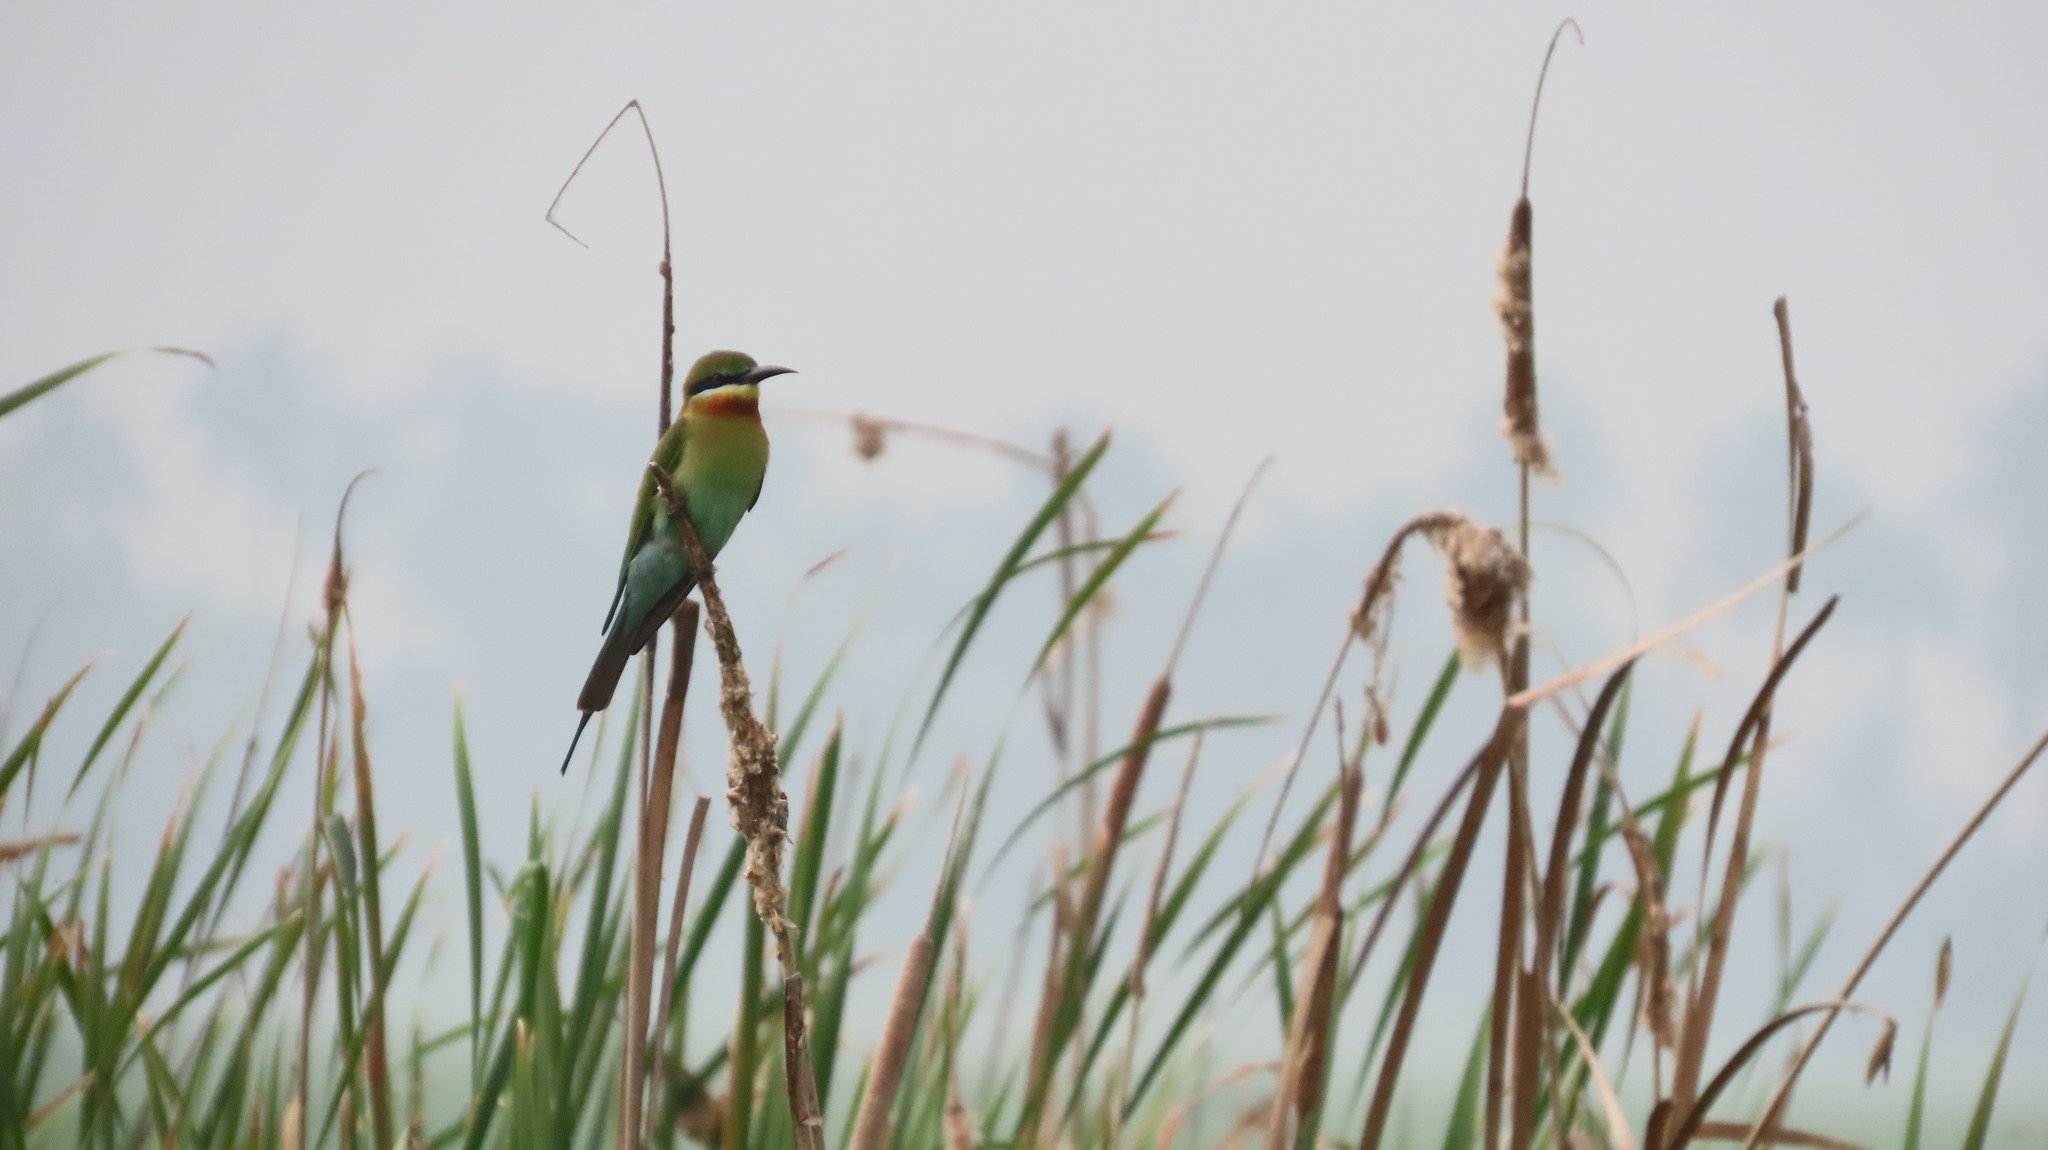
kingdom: Animalia
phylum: Chordata
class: Aves
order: Coraciiformes
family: Meropidae
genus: Merops
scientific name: Merops philippinus
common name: Blue-tailed bee-eater
